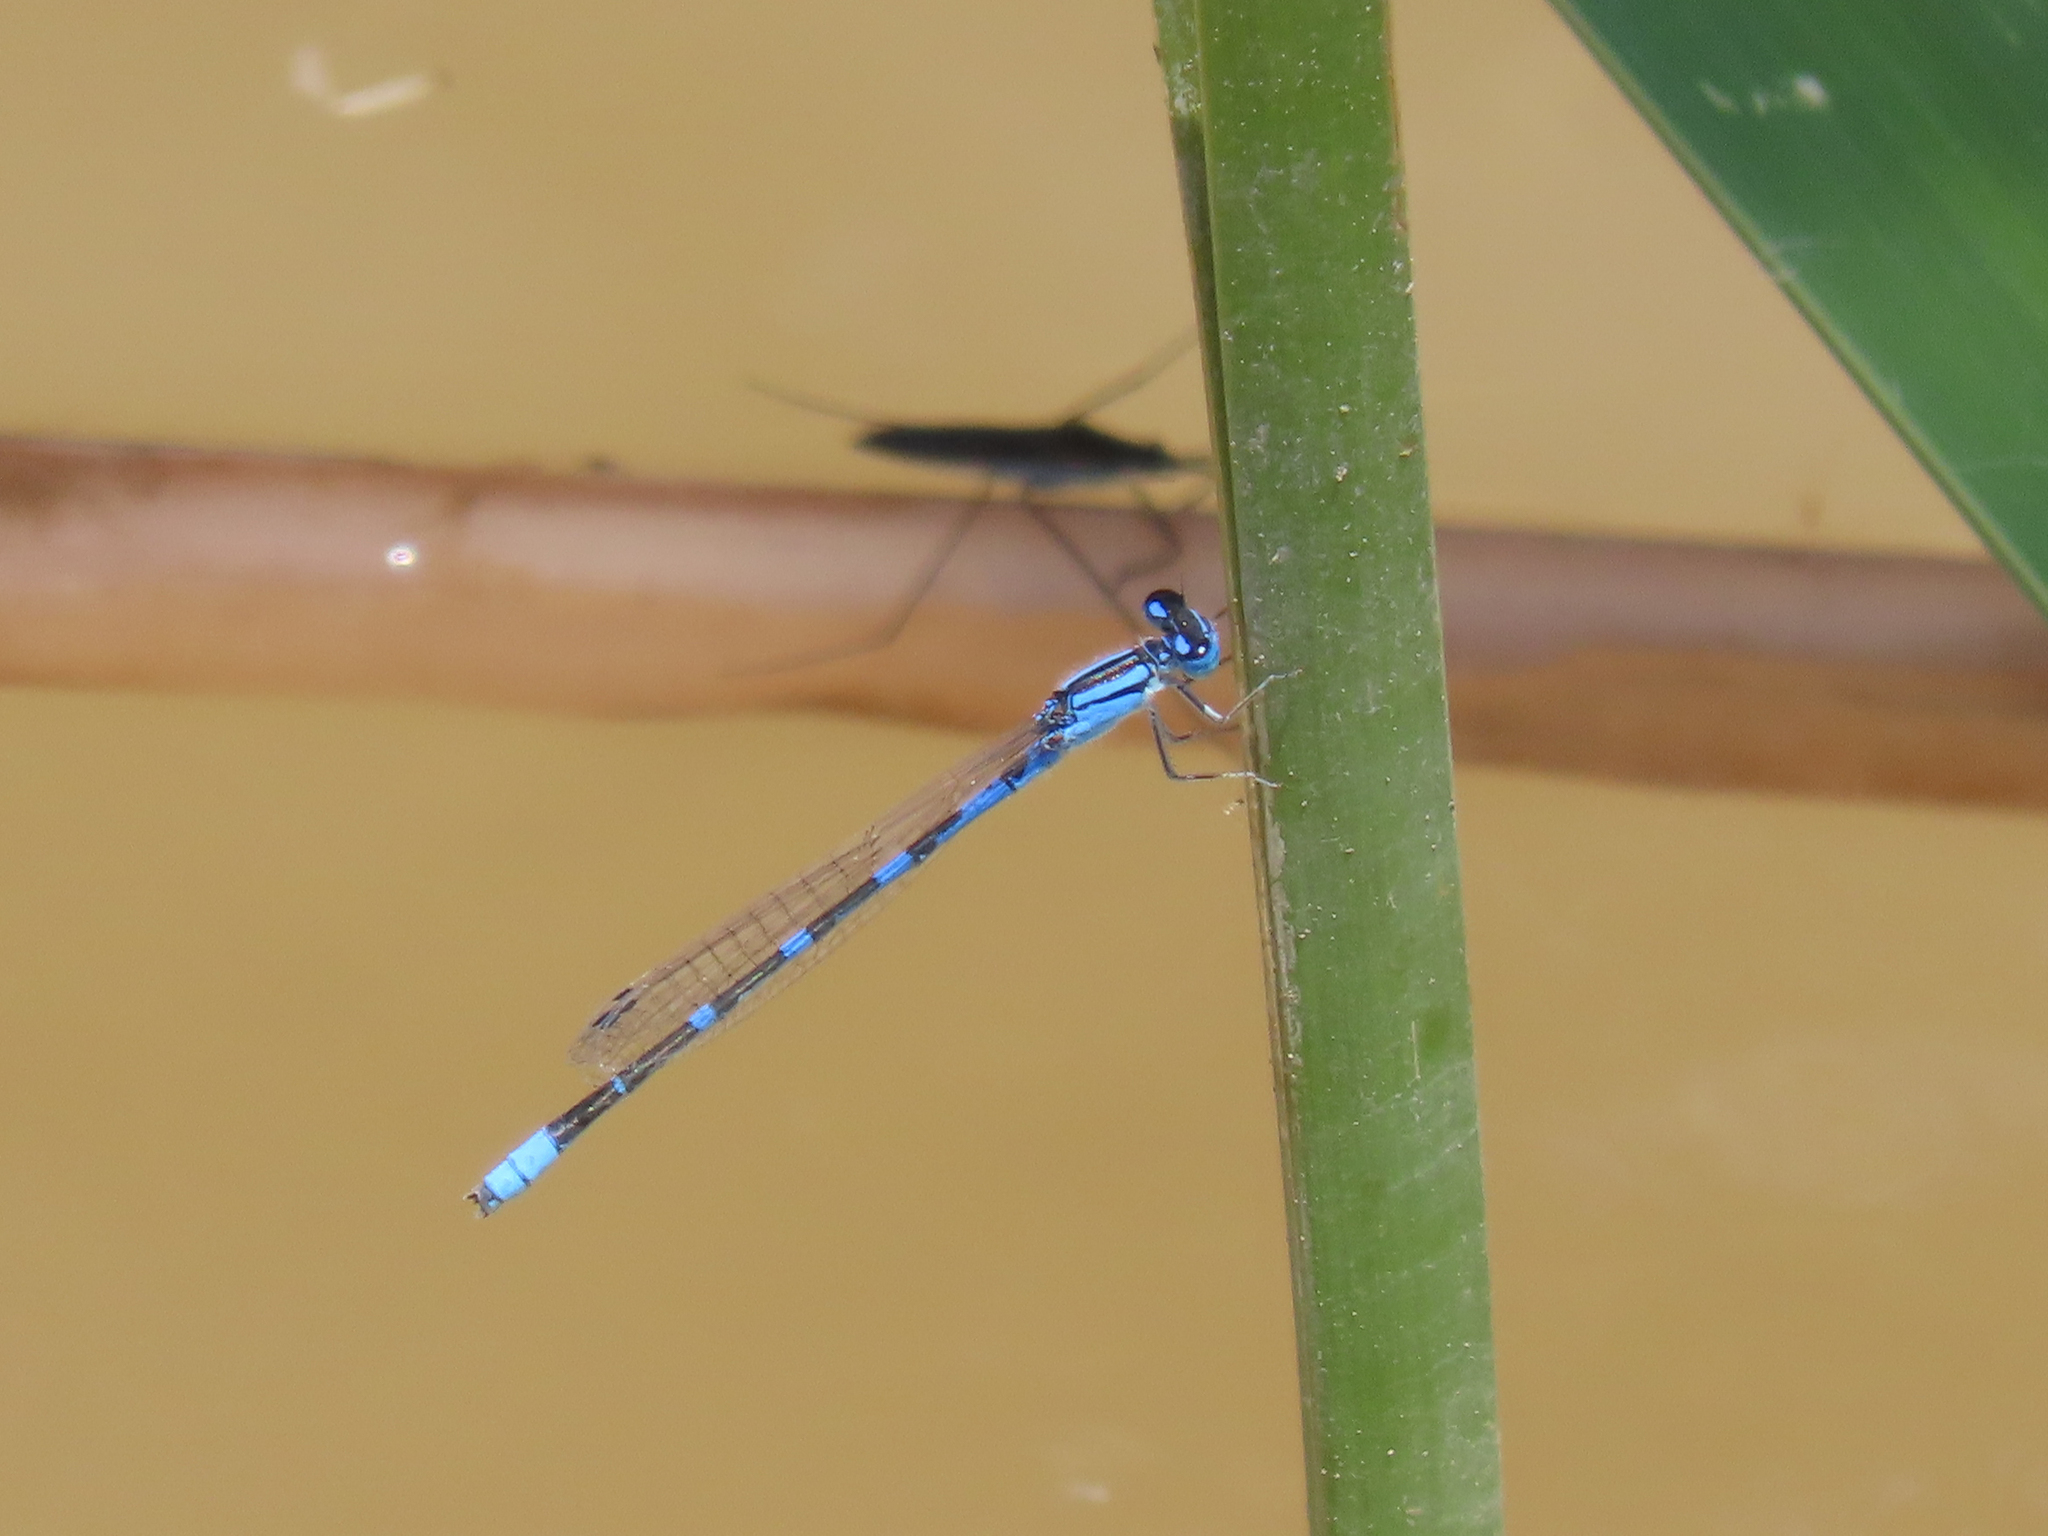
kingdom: Animalia
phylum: Arthropoda
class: Insecta
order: Odonata
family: Coenagrionidae
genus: Enallagma
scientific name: Enallagma praevarum
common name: Arroyo bluet
